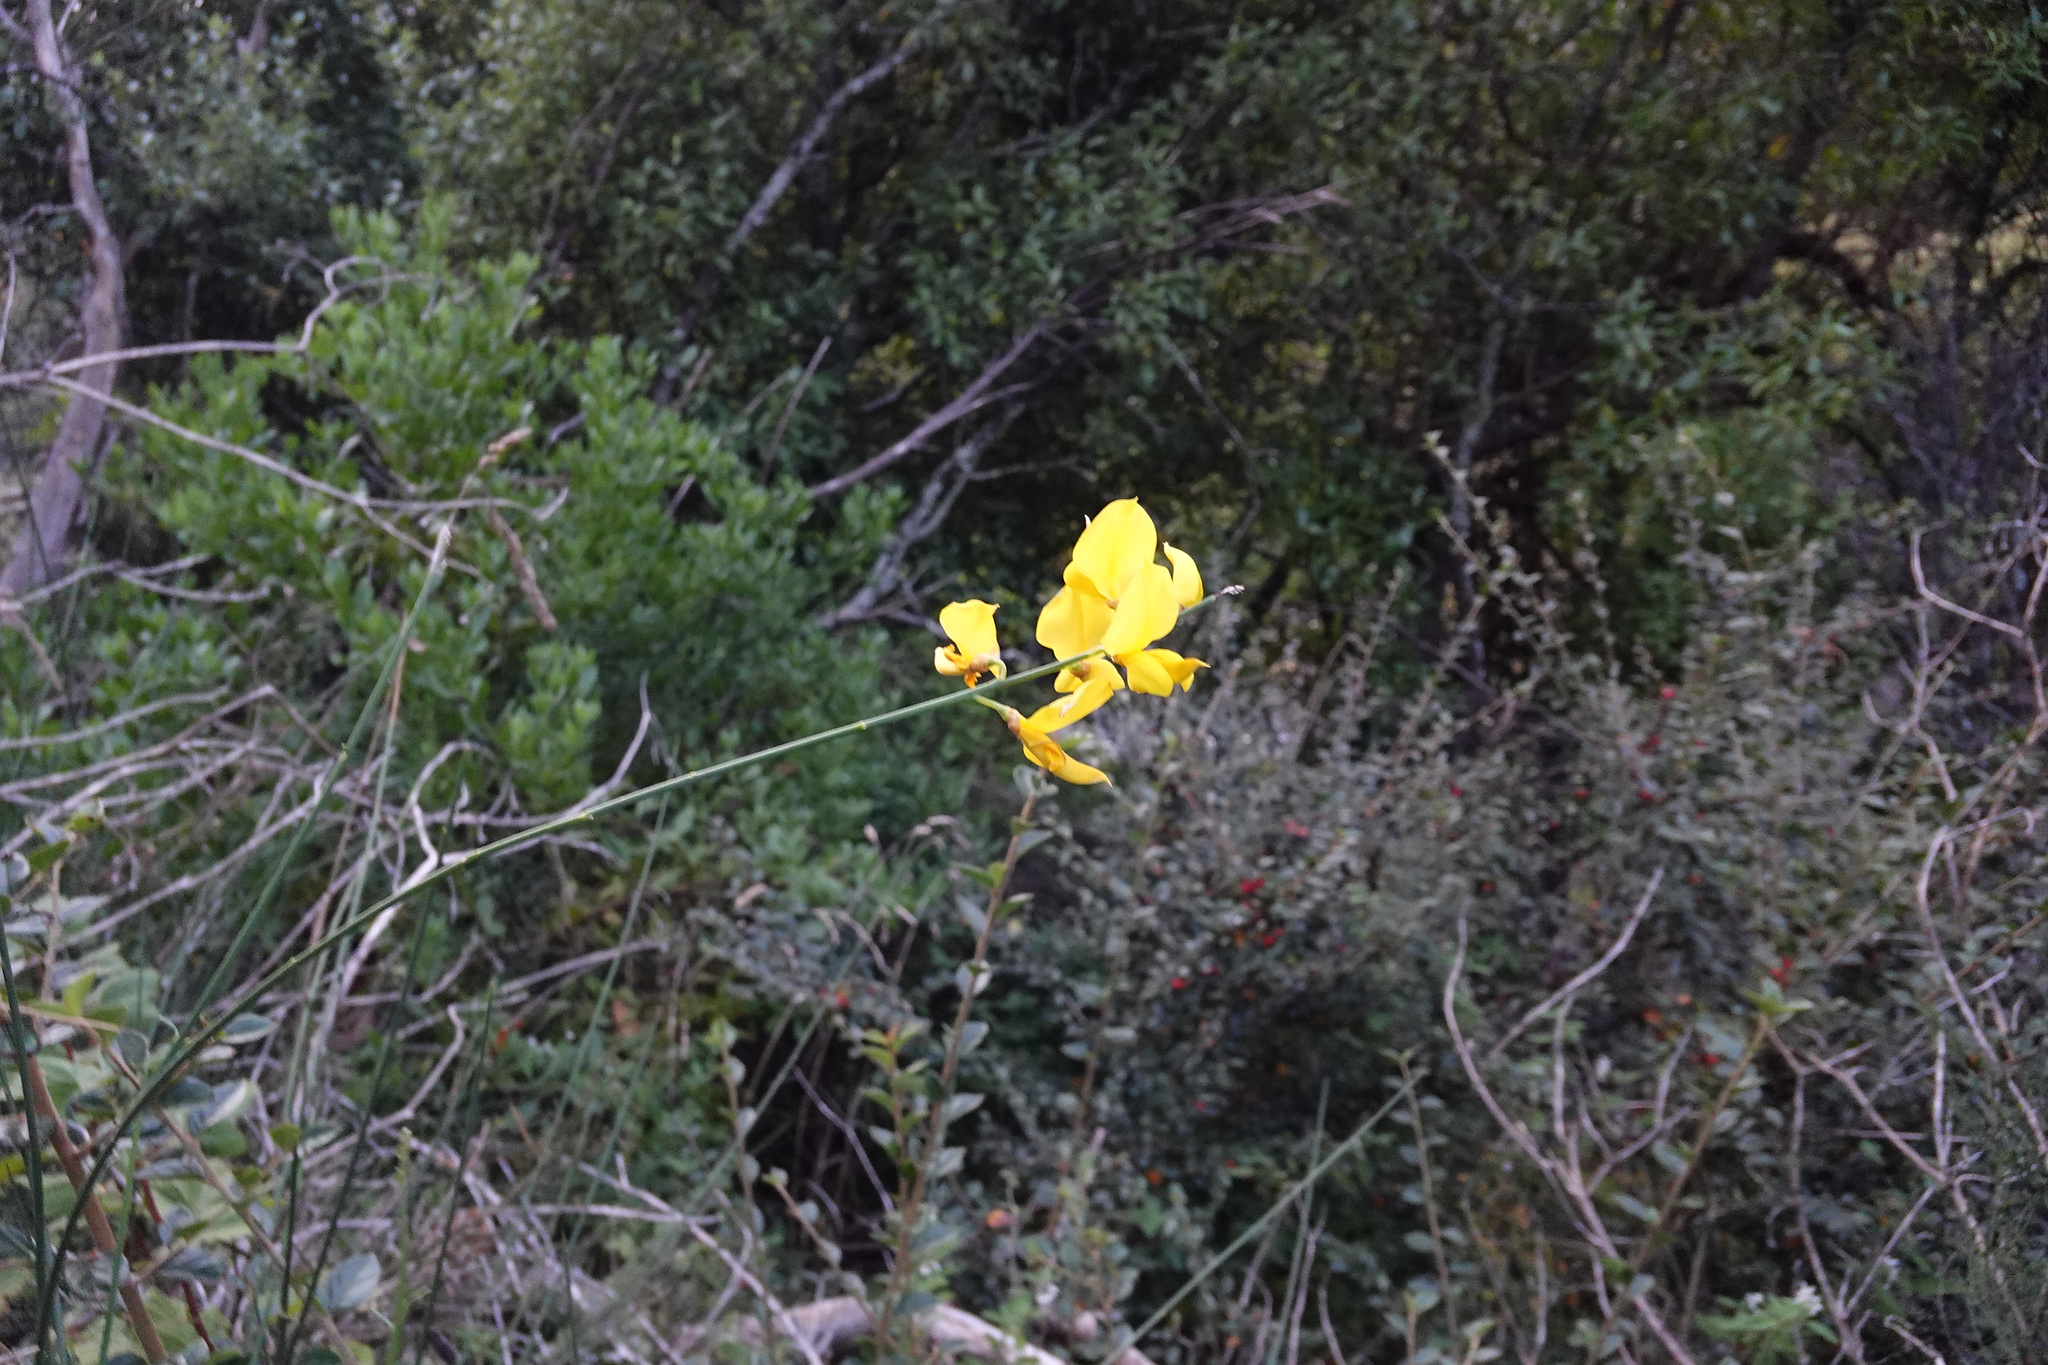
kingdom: Plantae
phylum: Tracheophyta
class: Magnoliopsida
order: Fabales
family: Fabaceae
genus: Spartium
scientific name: Spartium junceum
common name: Spanish broom
